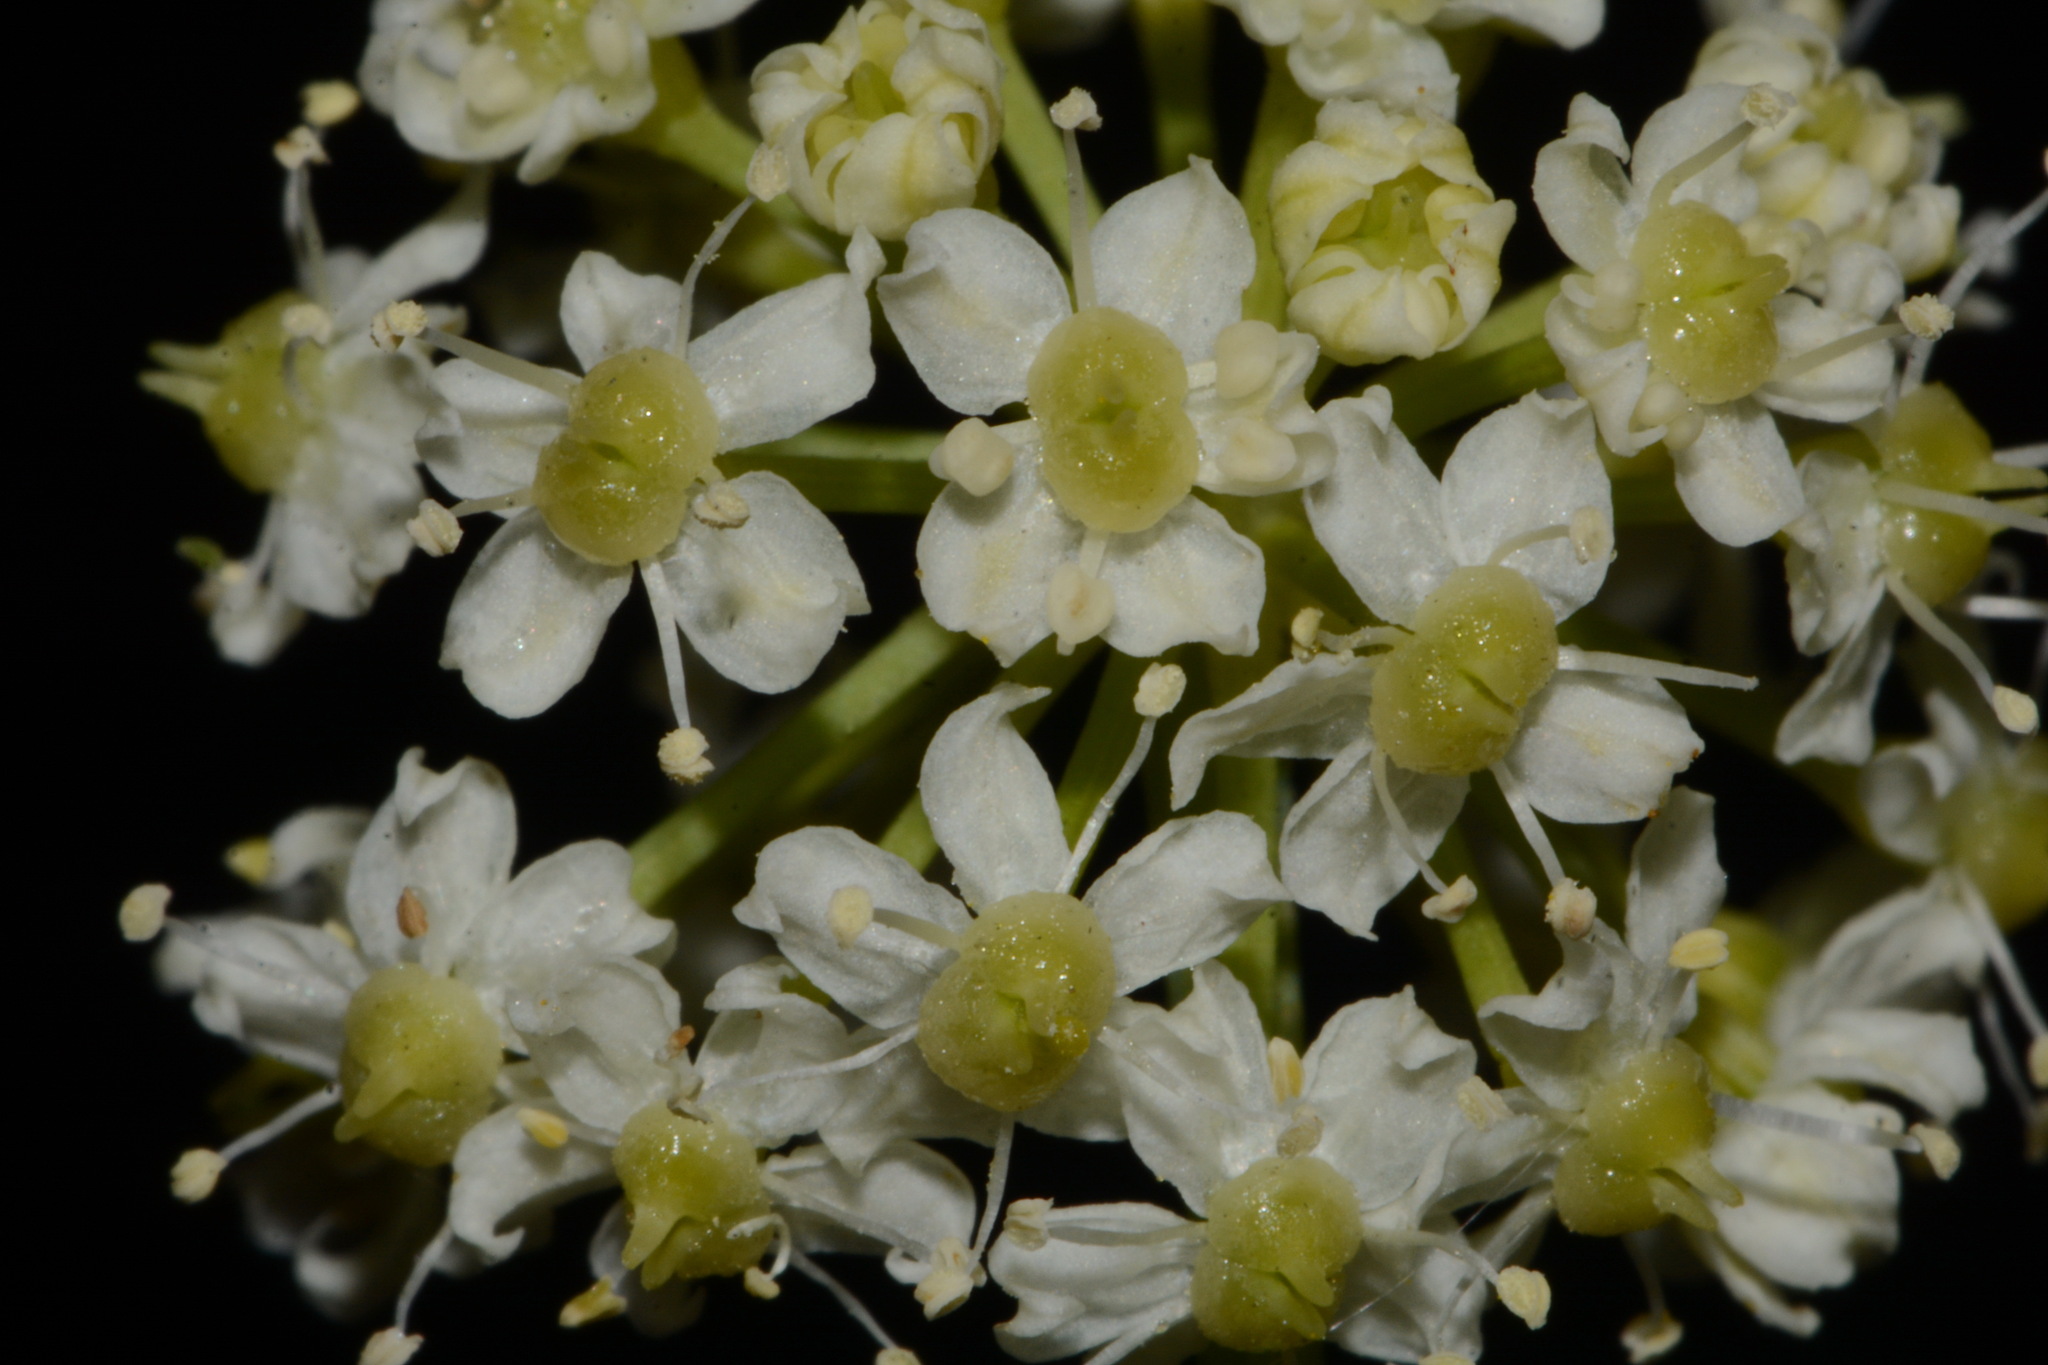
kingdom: Plantae
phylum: Tracheophyta
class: Magnoliopsida
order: Apiales
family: Apiaceae
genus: Ligusticum
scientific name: Ligusticum porteri
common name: Mountain lovage
